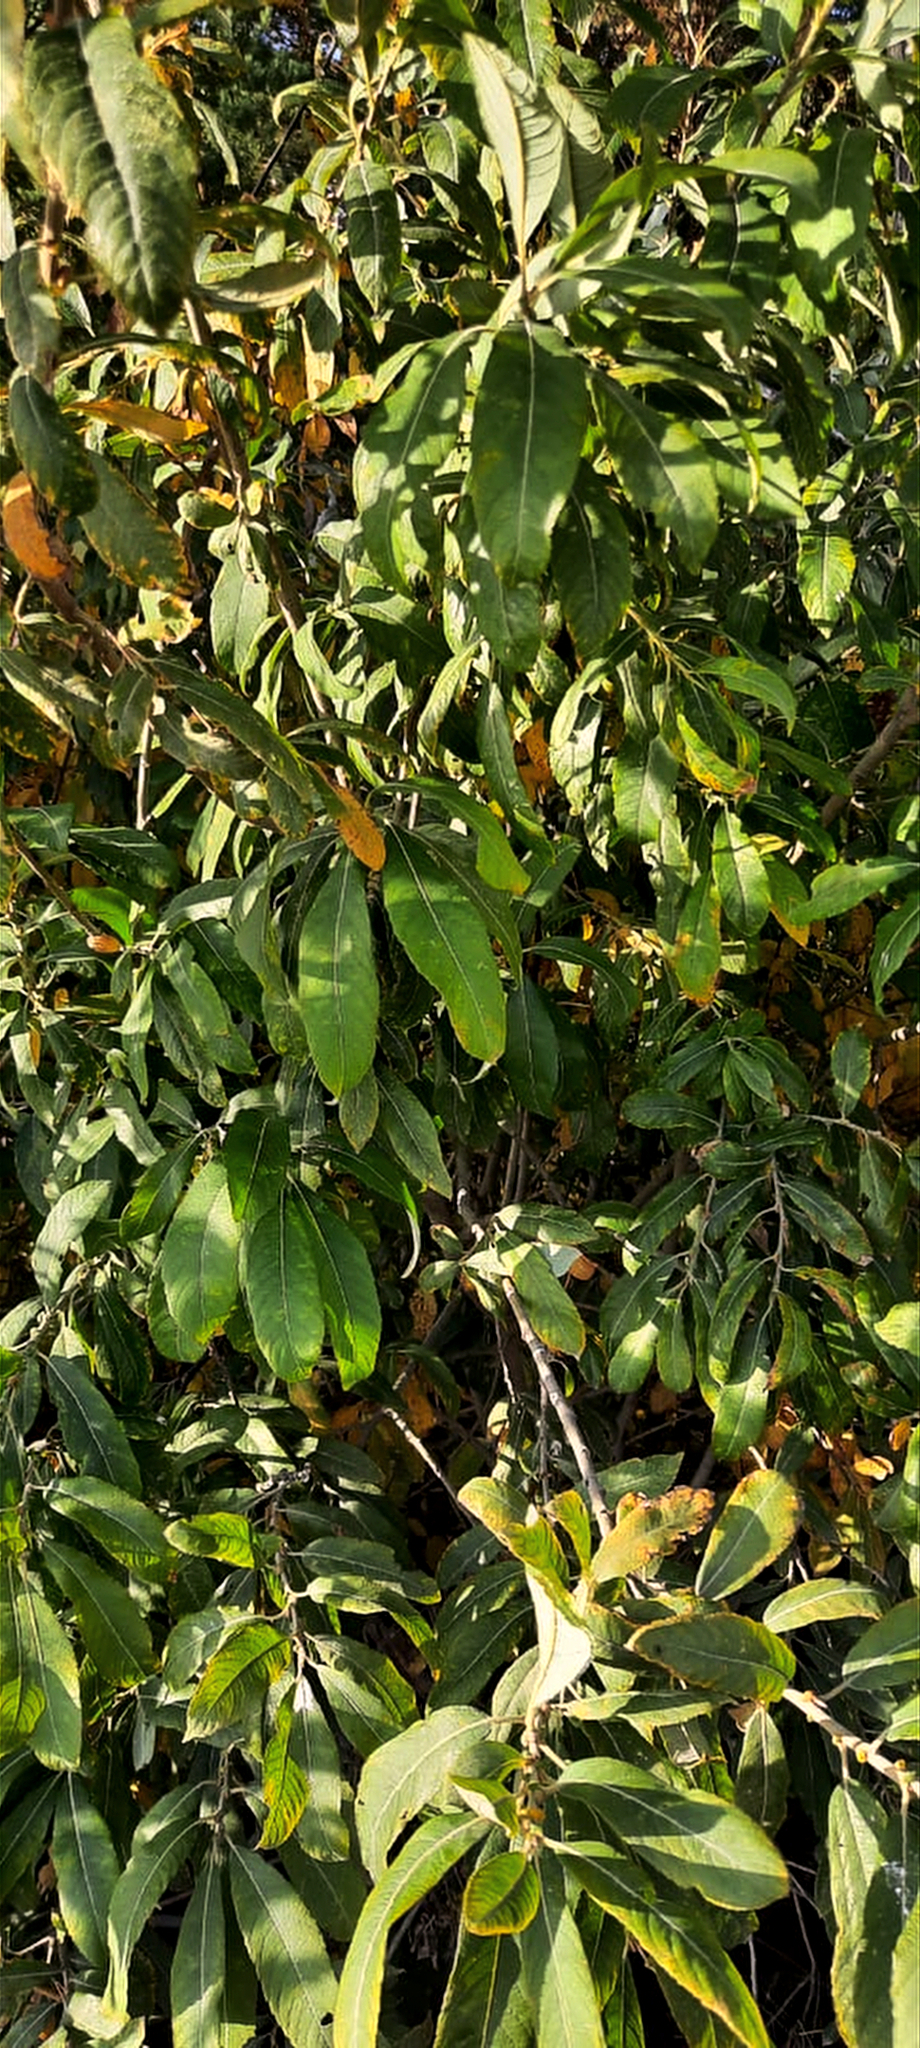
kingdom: Plantae
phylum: Tracheophyta
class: Magnoliopsida
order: Malpighiales
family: Salicaceae
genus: Salix
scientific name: Salix caprea
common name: Goat willow
